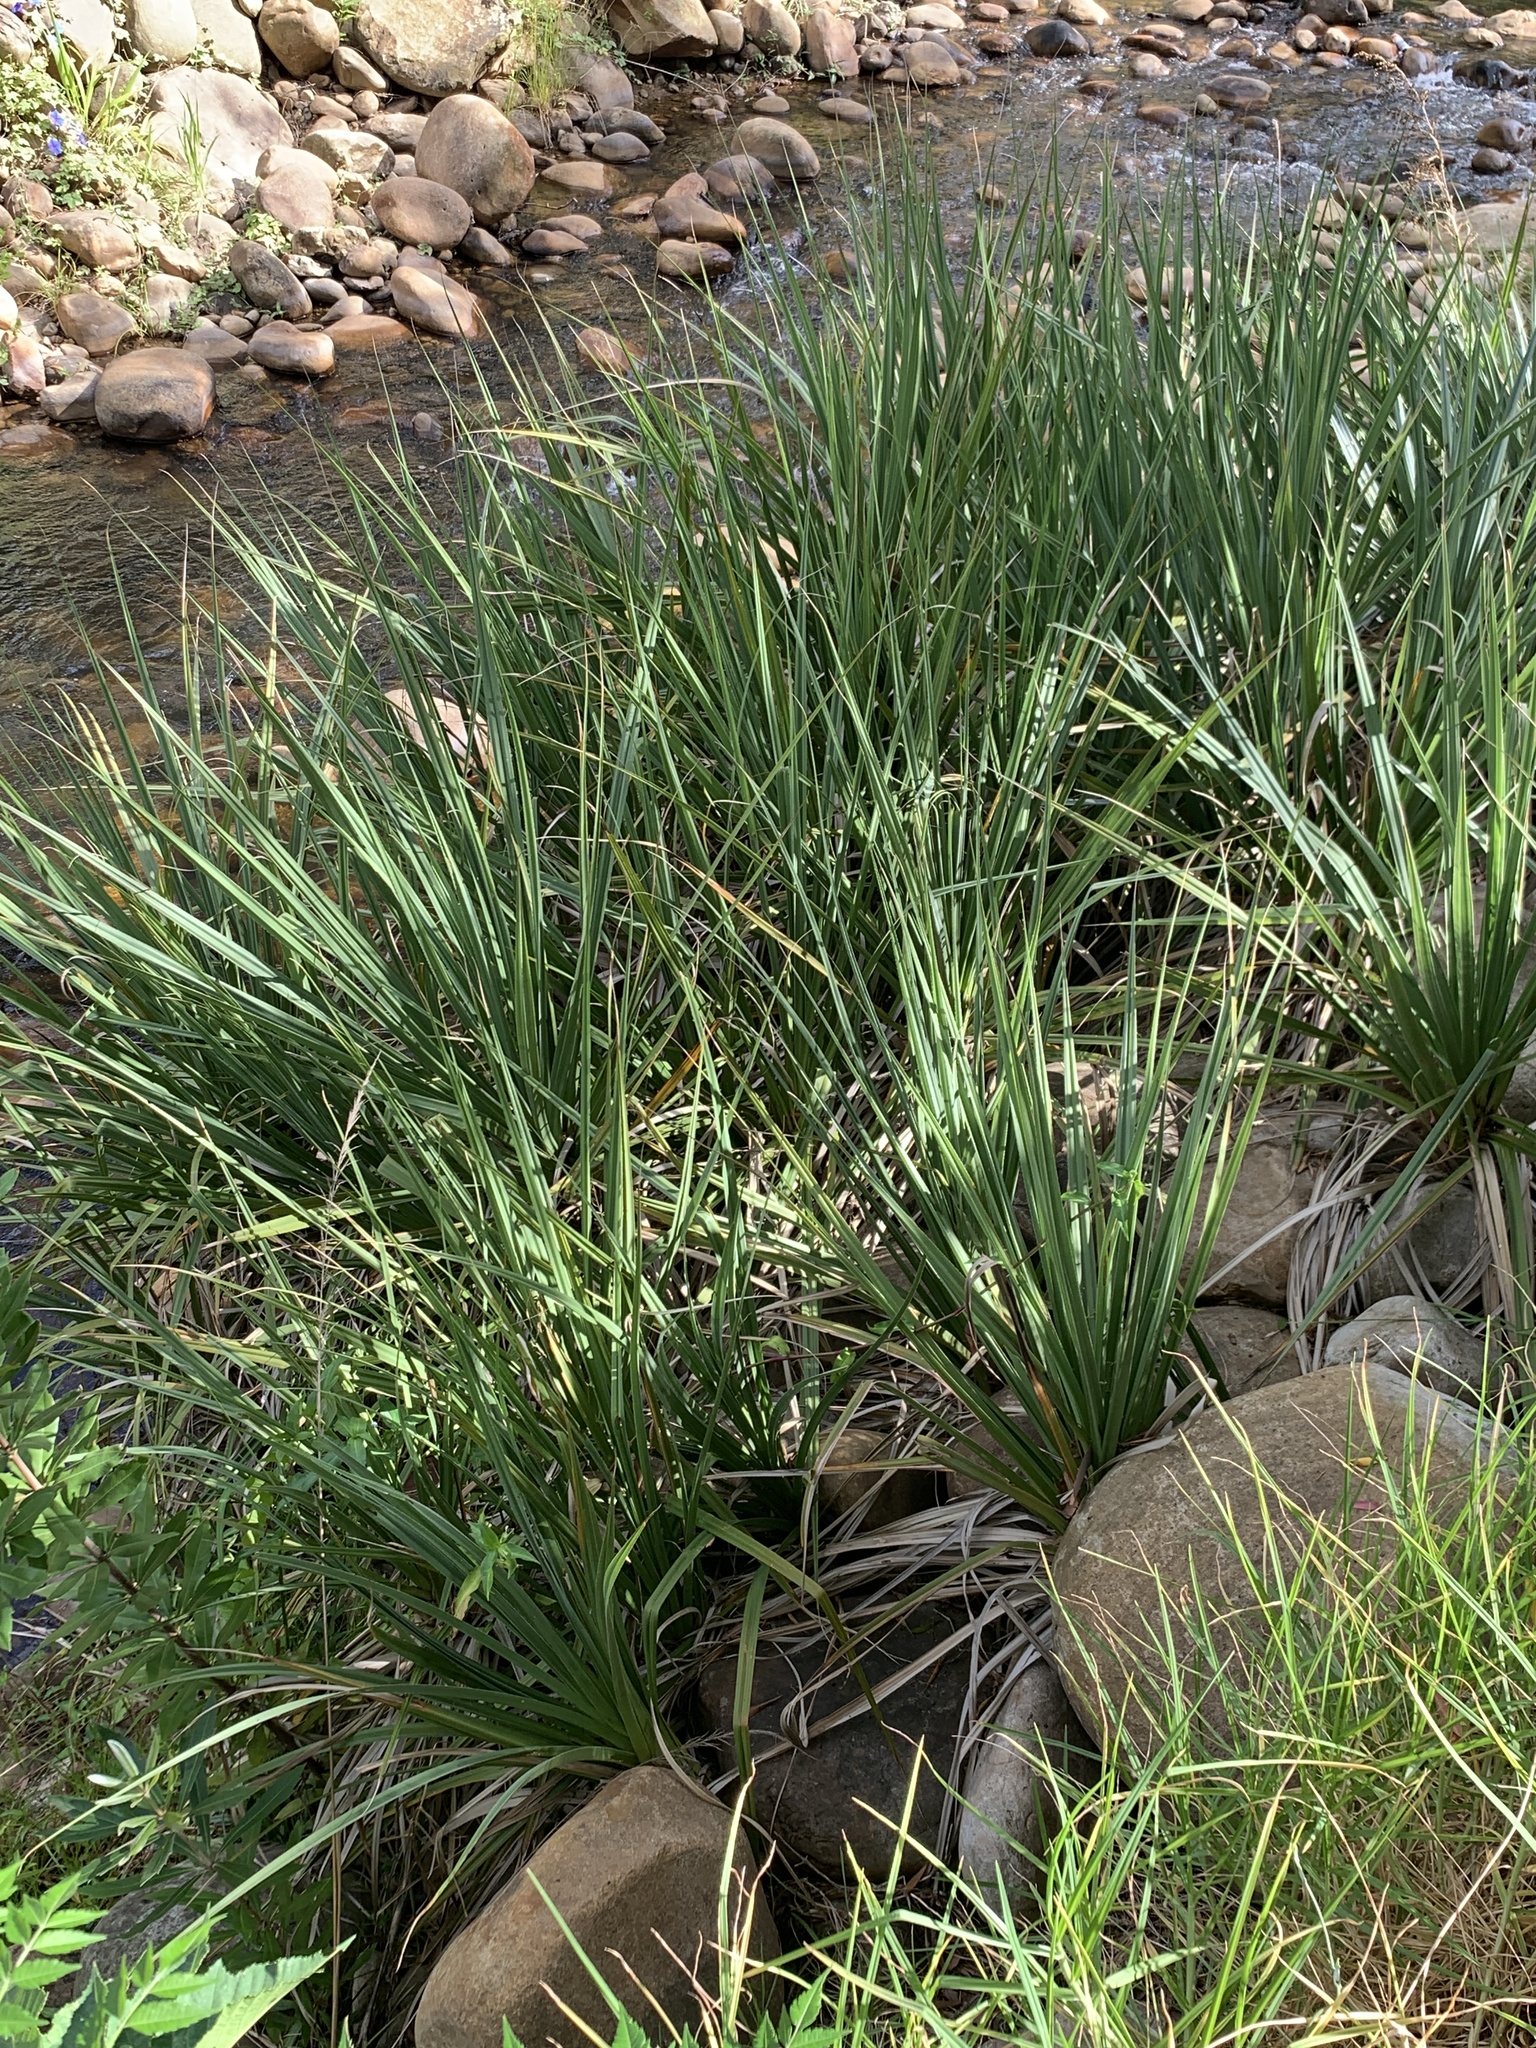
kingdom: Plantae
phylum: Tracheophyta
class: Liliopsida
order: Poales
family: Thurniaceae
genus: Prionium
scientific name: Prionium serratum
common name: Palmiet
